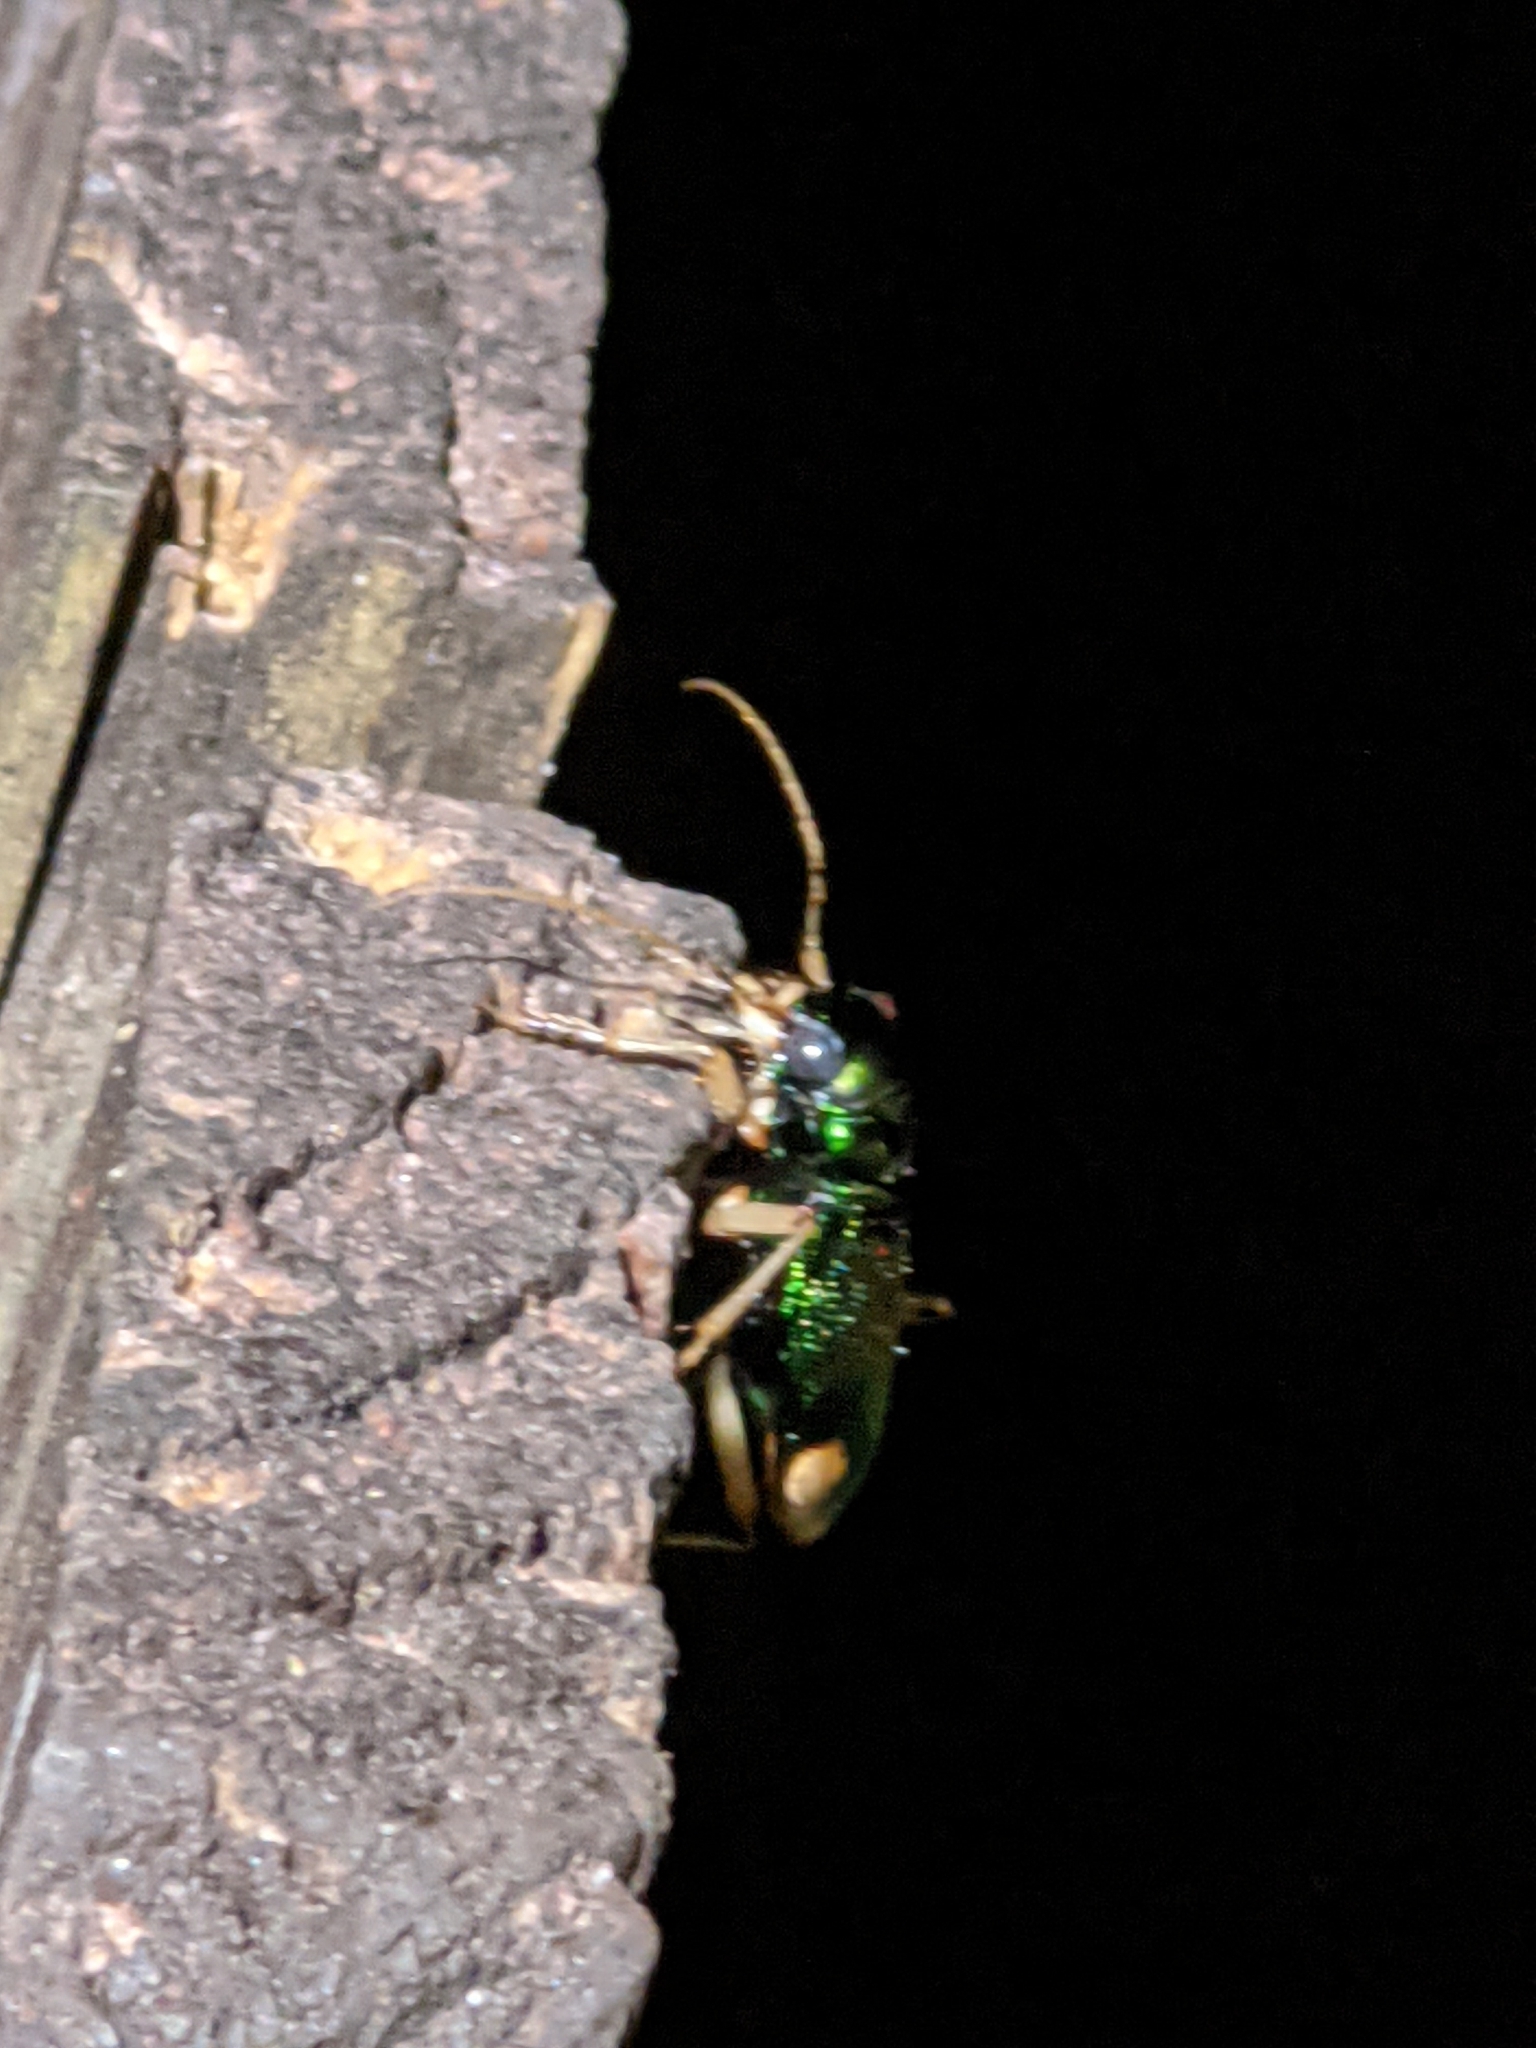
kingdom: Animalia
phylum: Arthropoda
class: Insecta
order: Coleoptera
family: Carabidae
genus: Tetracha
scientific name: Tetracha carolina
